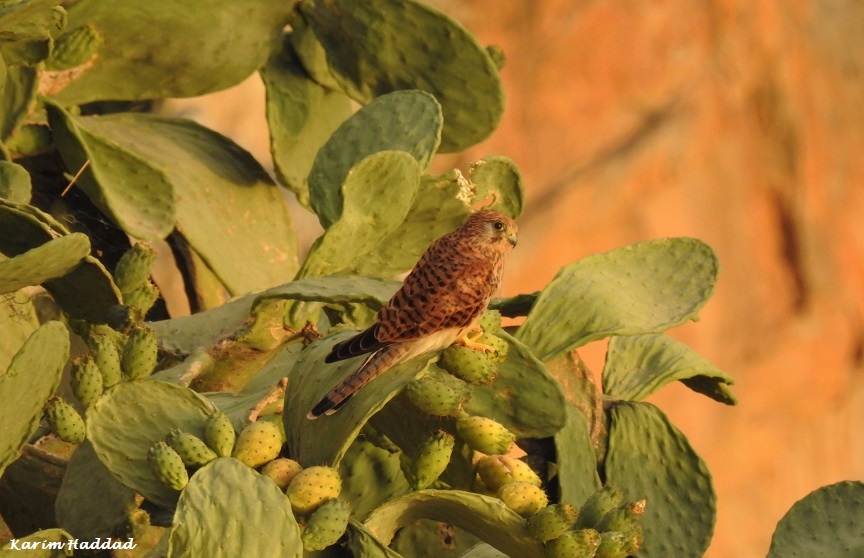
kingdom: Animalia
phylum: Chordata
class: Aves
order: Falconiformes
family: Falconidae
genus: Falco
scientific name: Falco tinnunculus
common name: Common kestrel
